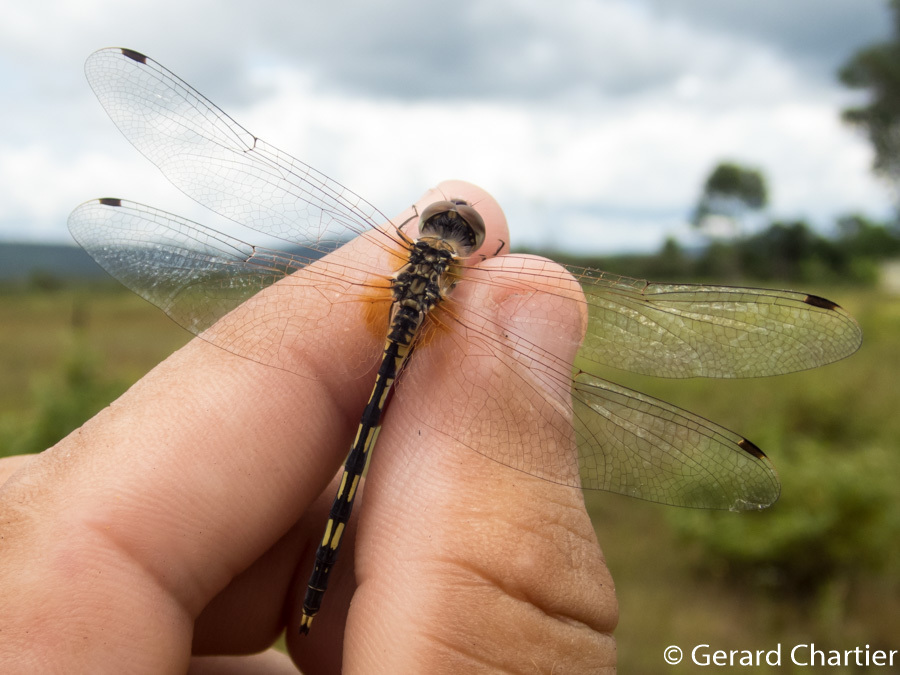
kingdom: Animalia
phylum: Arthropoda
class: Insecta
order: Odonata
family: Libellulidae
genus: Trithemis
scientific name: Trithemis pallidinervis
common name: Dancing dropwing
